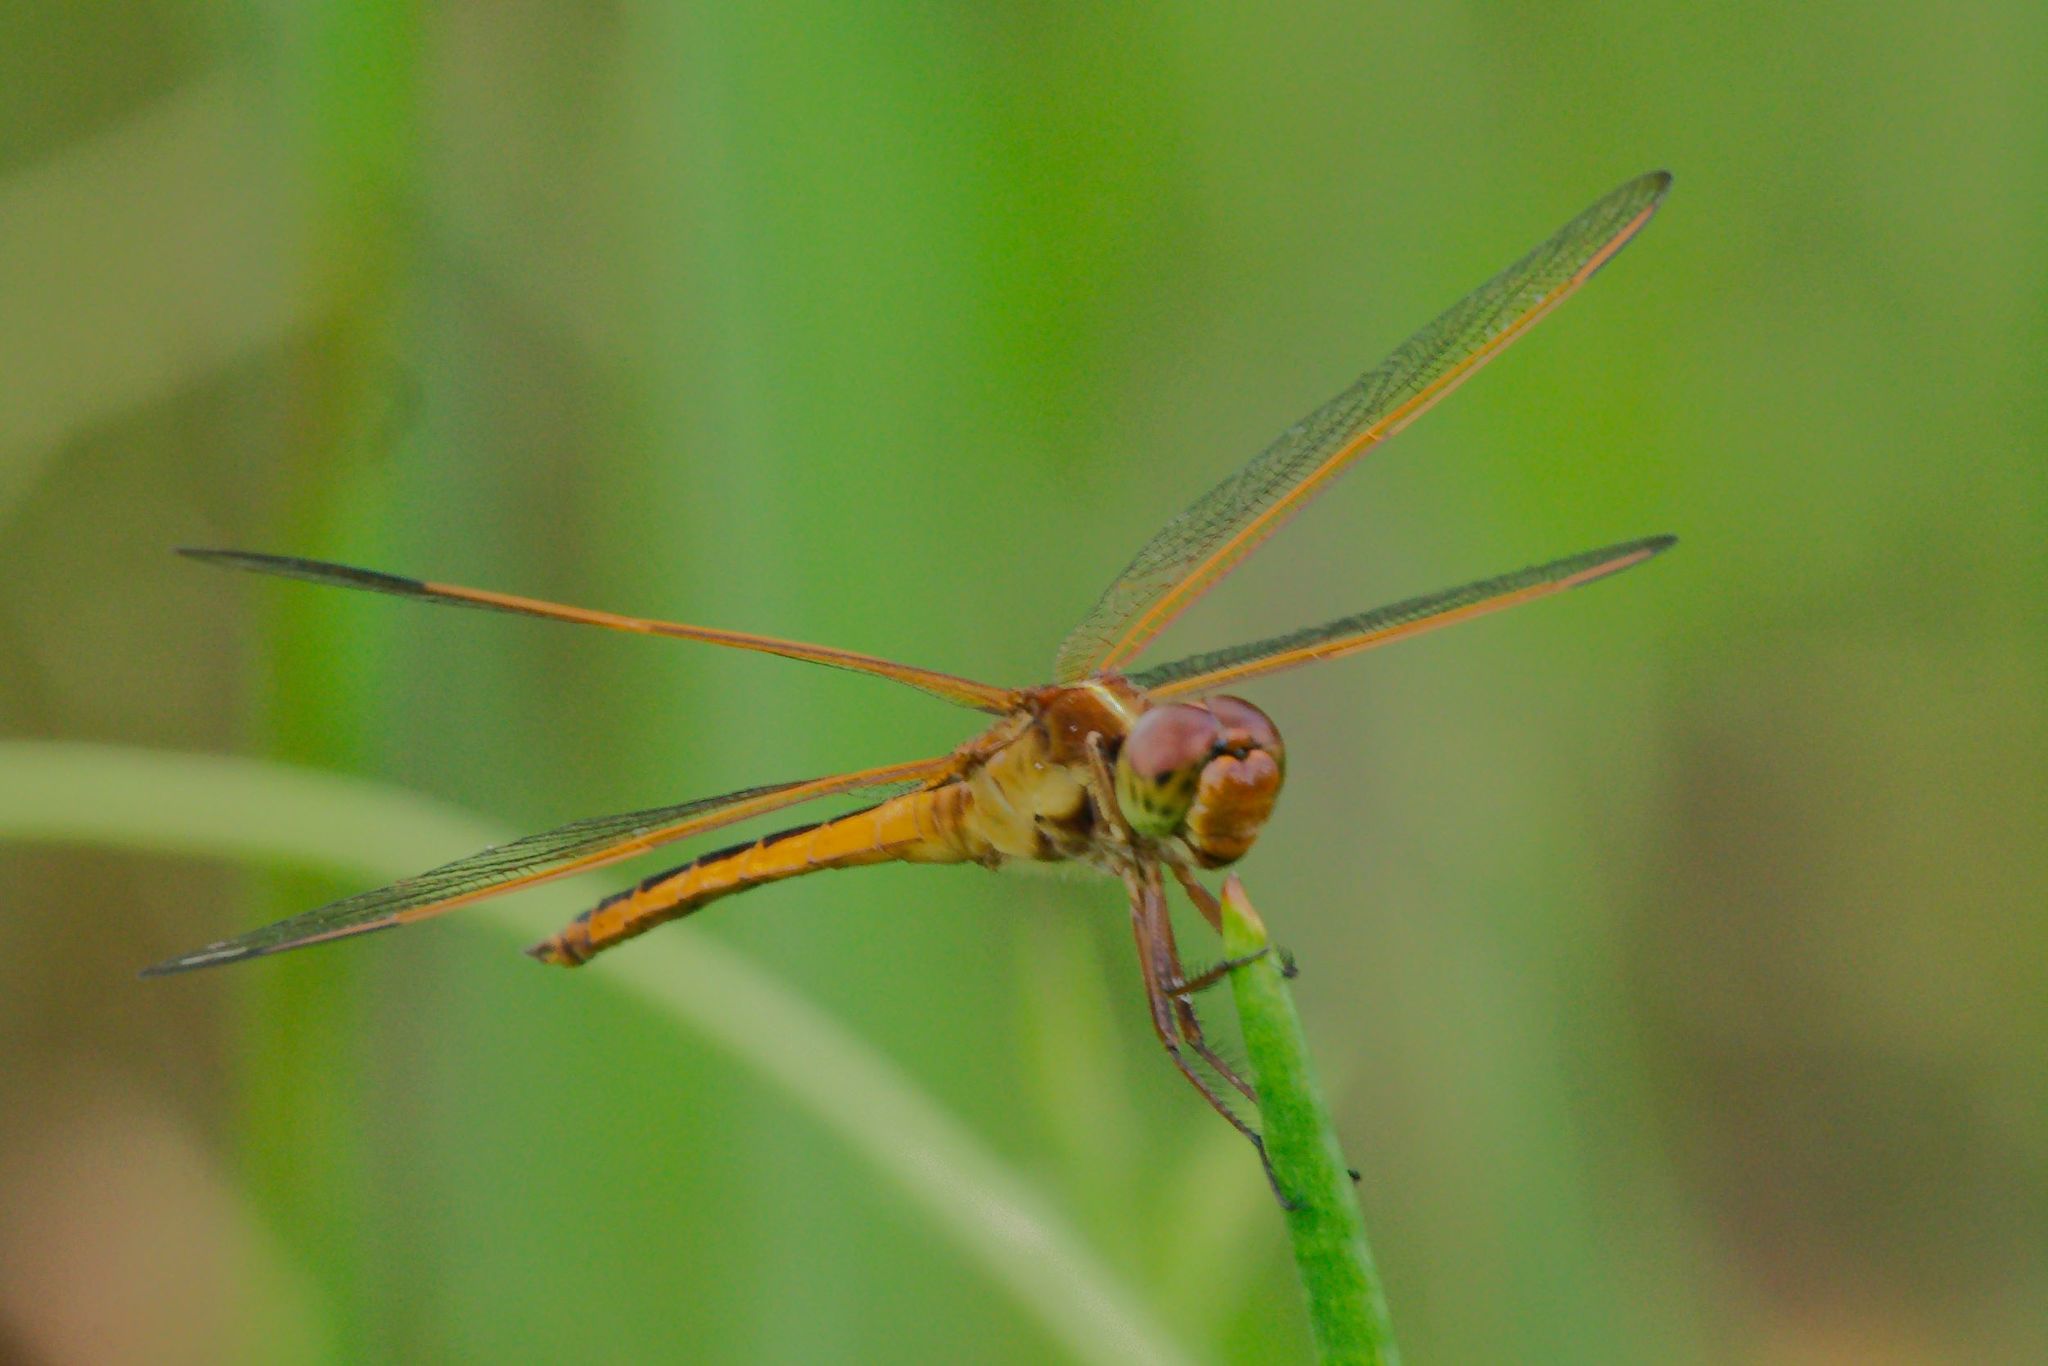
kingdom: Animalia
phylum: Arthropoda
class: Insecta
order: Odonata
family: Libellulidae
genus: Libellula
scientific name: Libellula needhami
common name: Needham's skimmer
